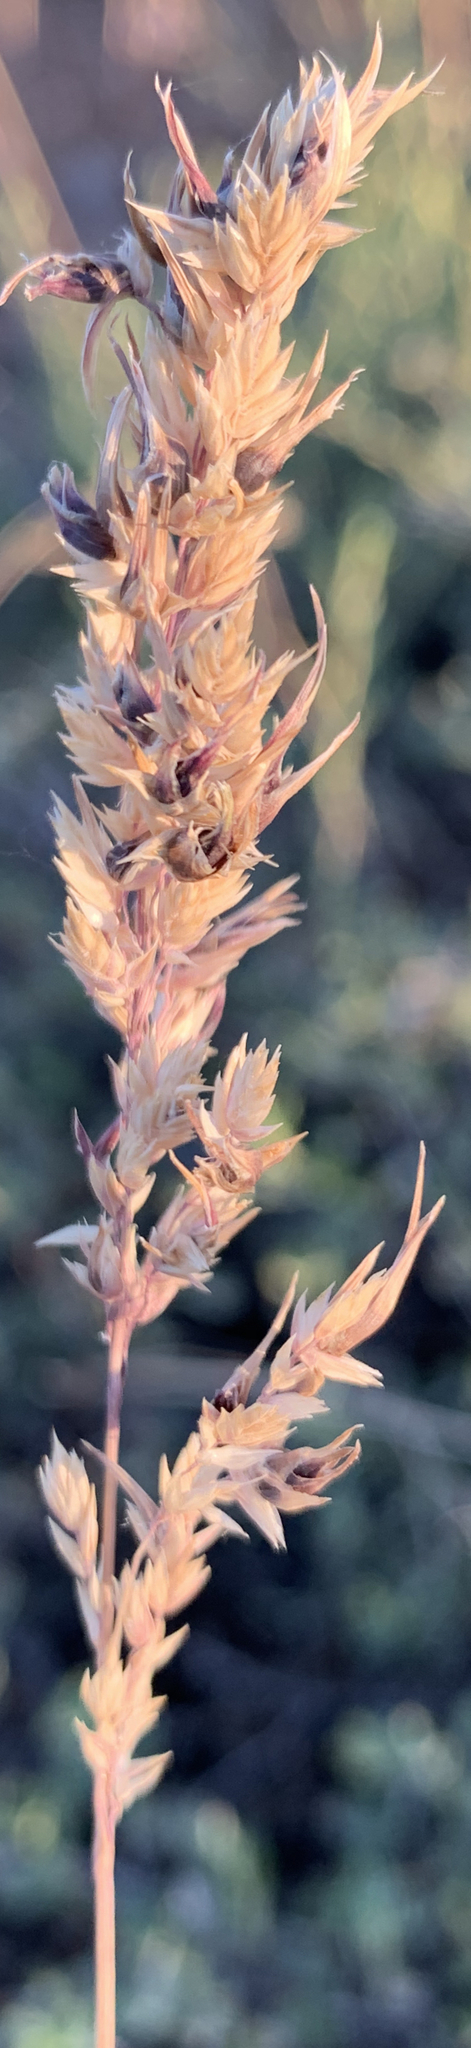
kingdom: Plantae
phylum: Tracheophyta
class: Liliopsida
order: Poales
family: Poaceae
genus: Poa
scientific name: Poa bulbosa
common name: Bulbous bluegrass
